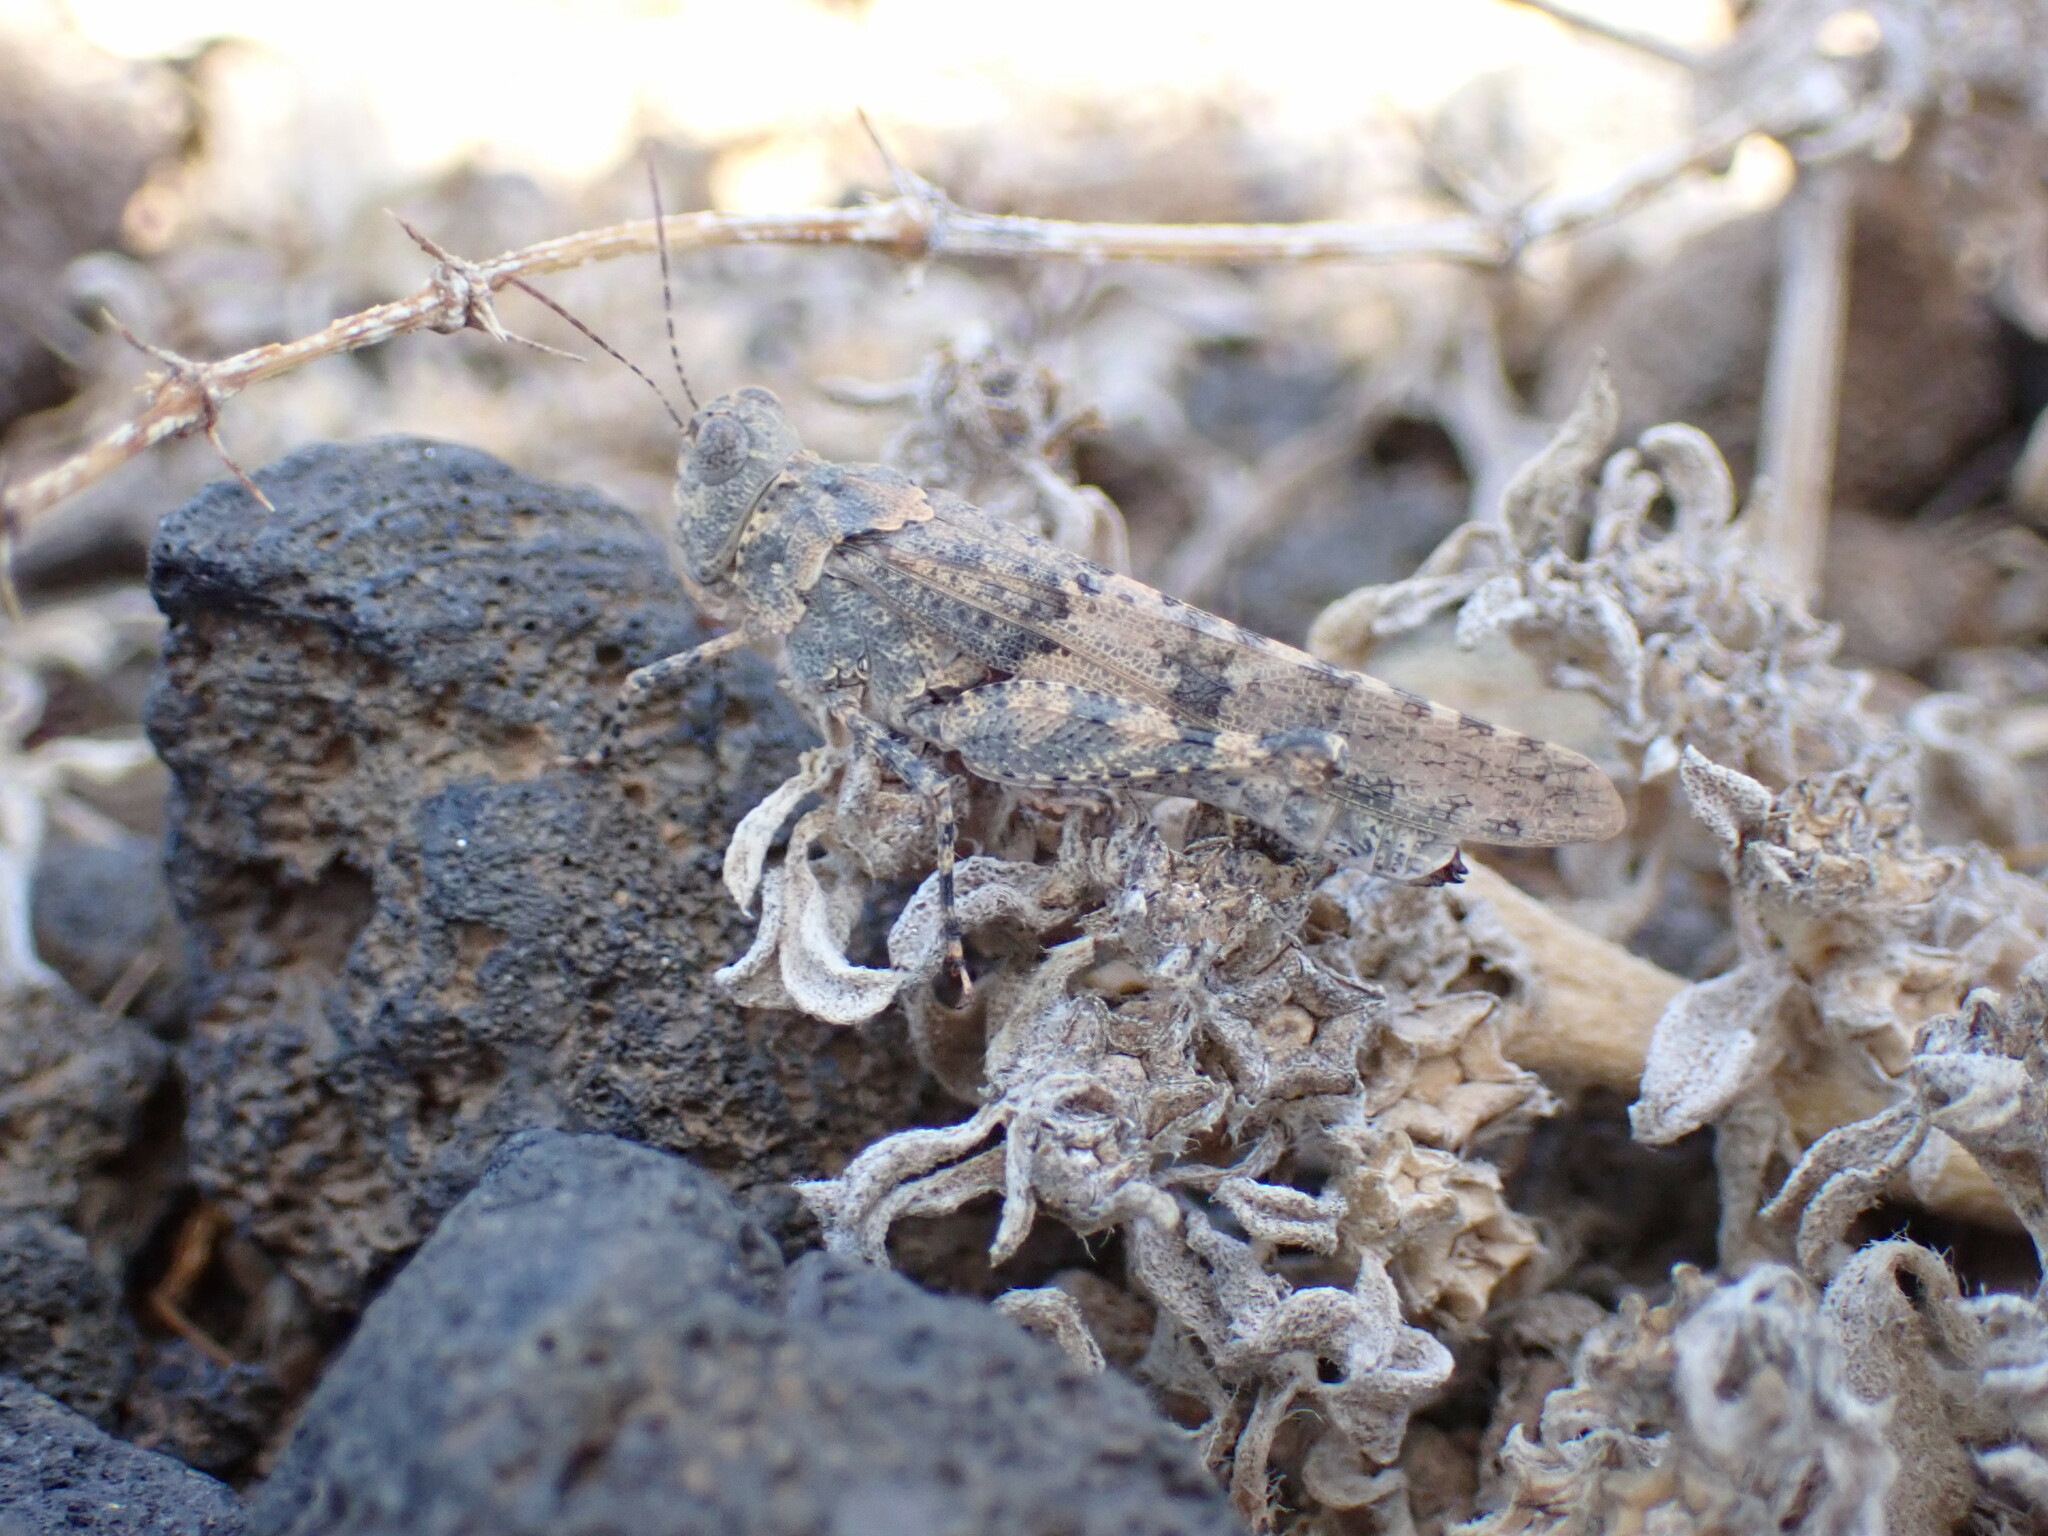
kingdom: Animalia
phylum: Arthropoda
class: Insecta
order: Orthoptera
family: Acrididae
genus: Sphingonotus
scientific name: Sphingonotus picteti
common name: Tenerife sand grasshopper
